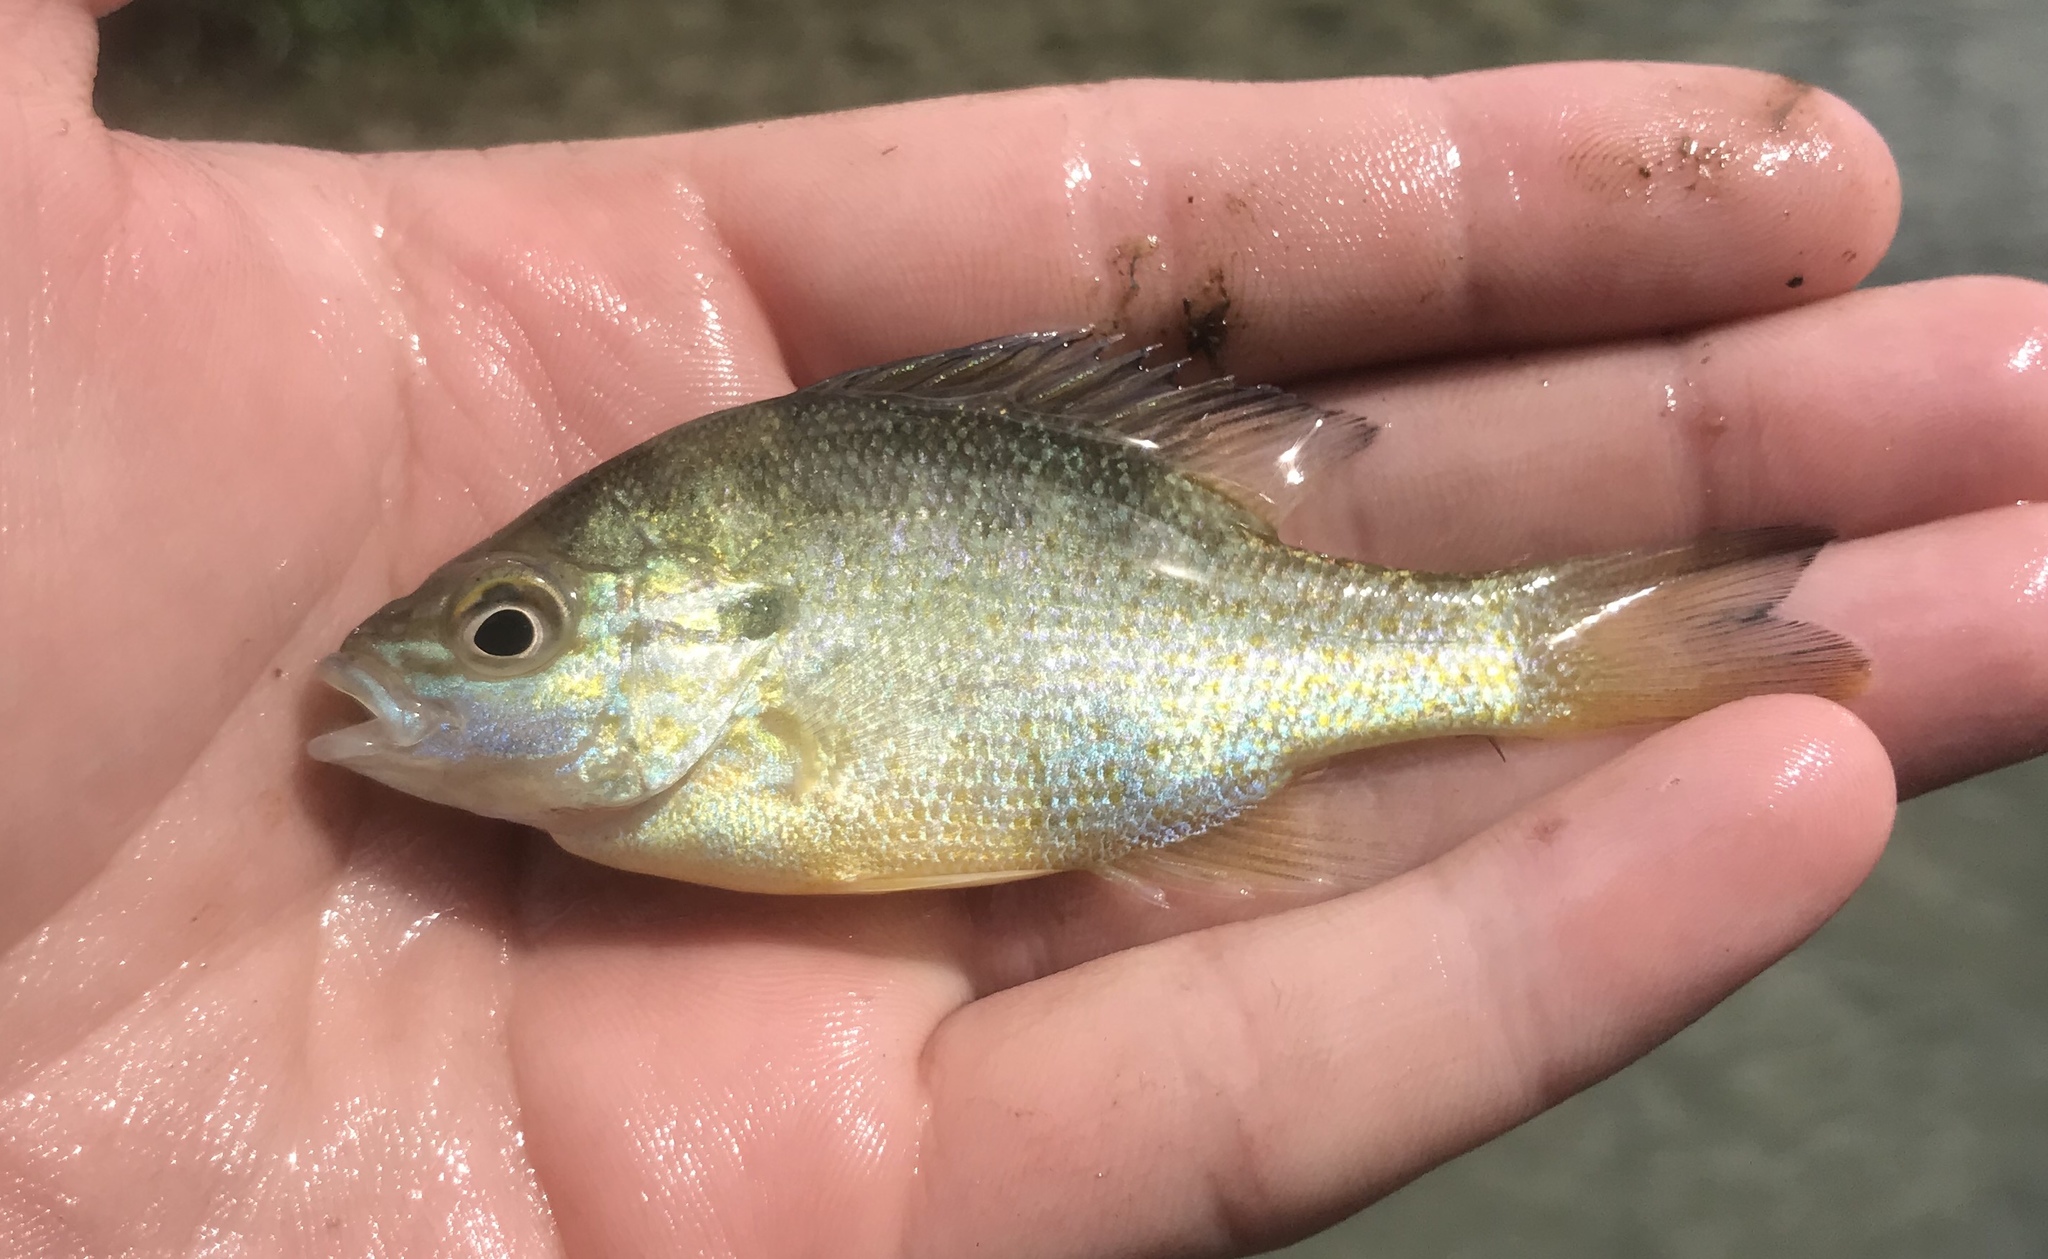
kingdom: Animalia
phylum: Chordata
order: Perciformes
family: Centrarchidae
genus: Lepomis
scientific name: Lepomis auritus
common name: Redbreast sunfish
